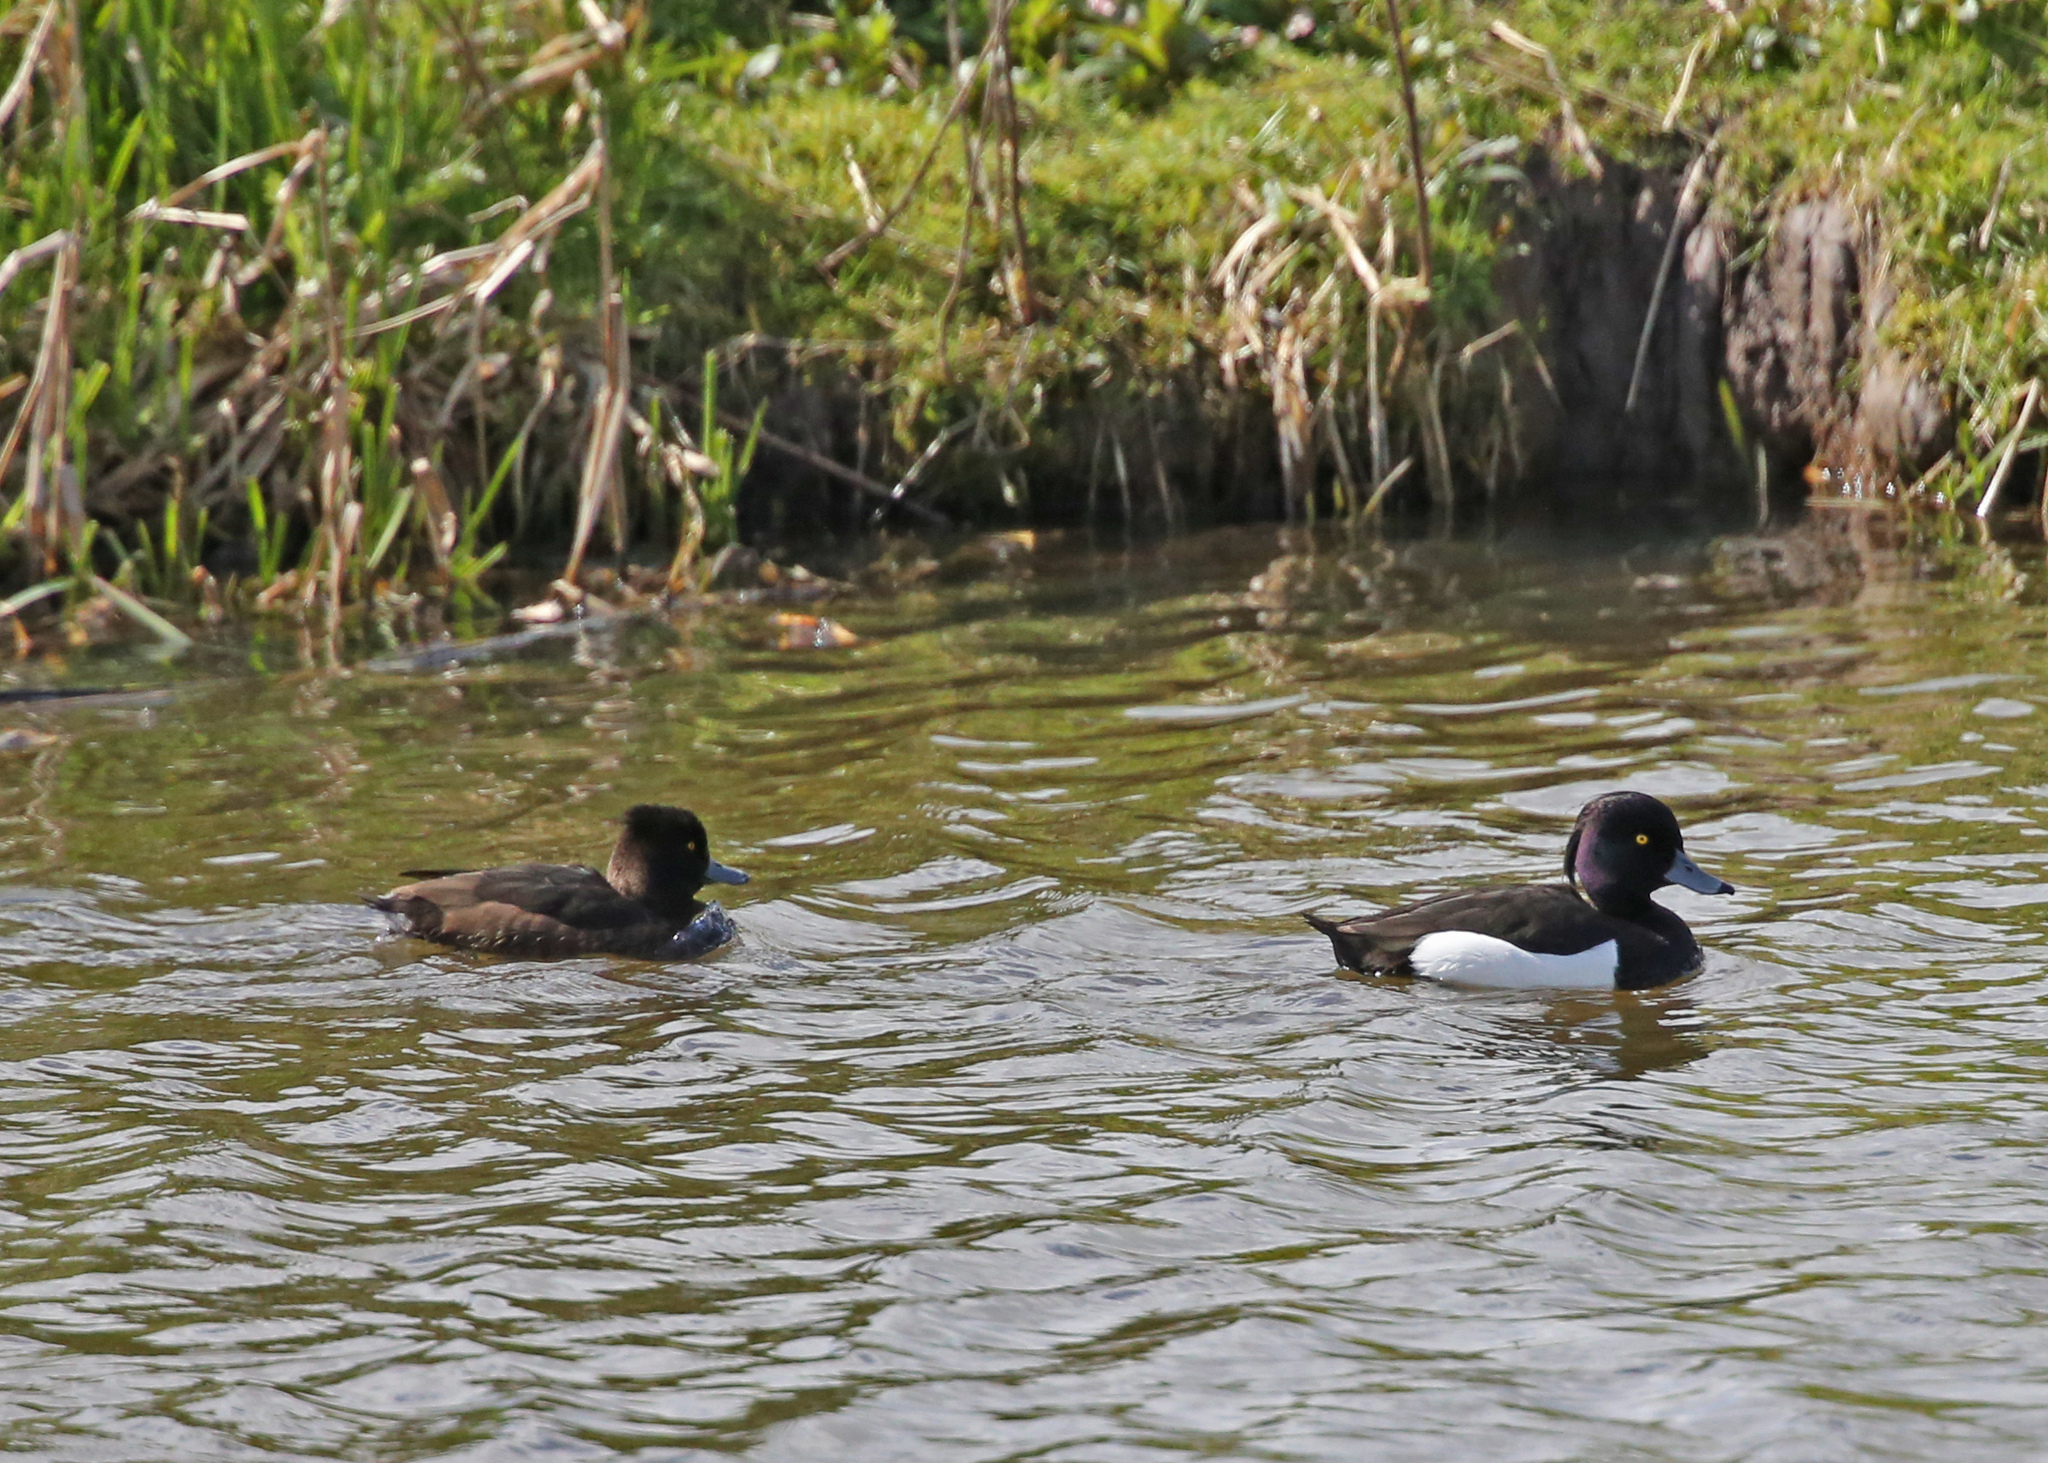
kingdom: Animalia
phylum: Chordata
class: Aves
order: Anseriformes
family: Anatidae
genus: Aythya
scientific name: Aythya fuligula
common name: Tufted duck
